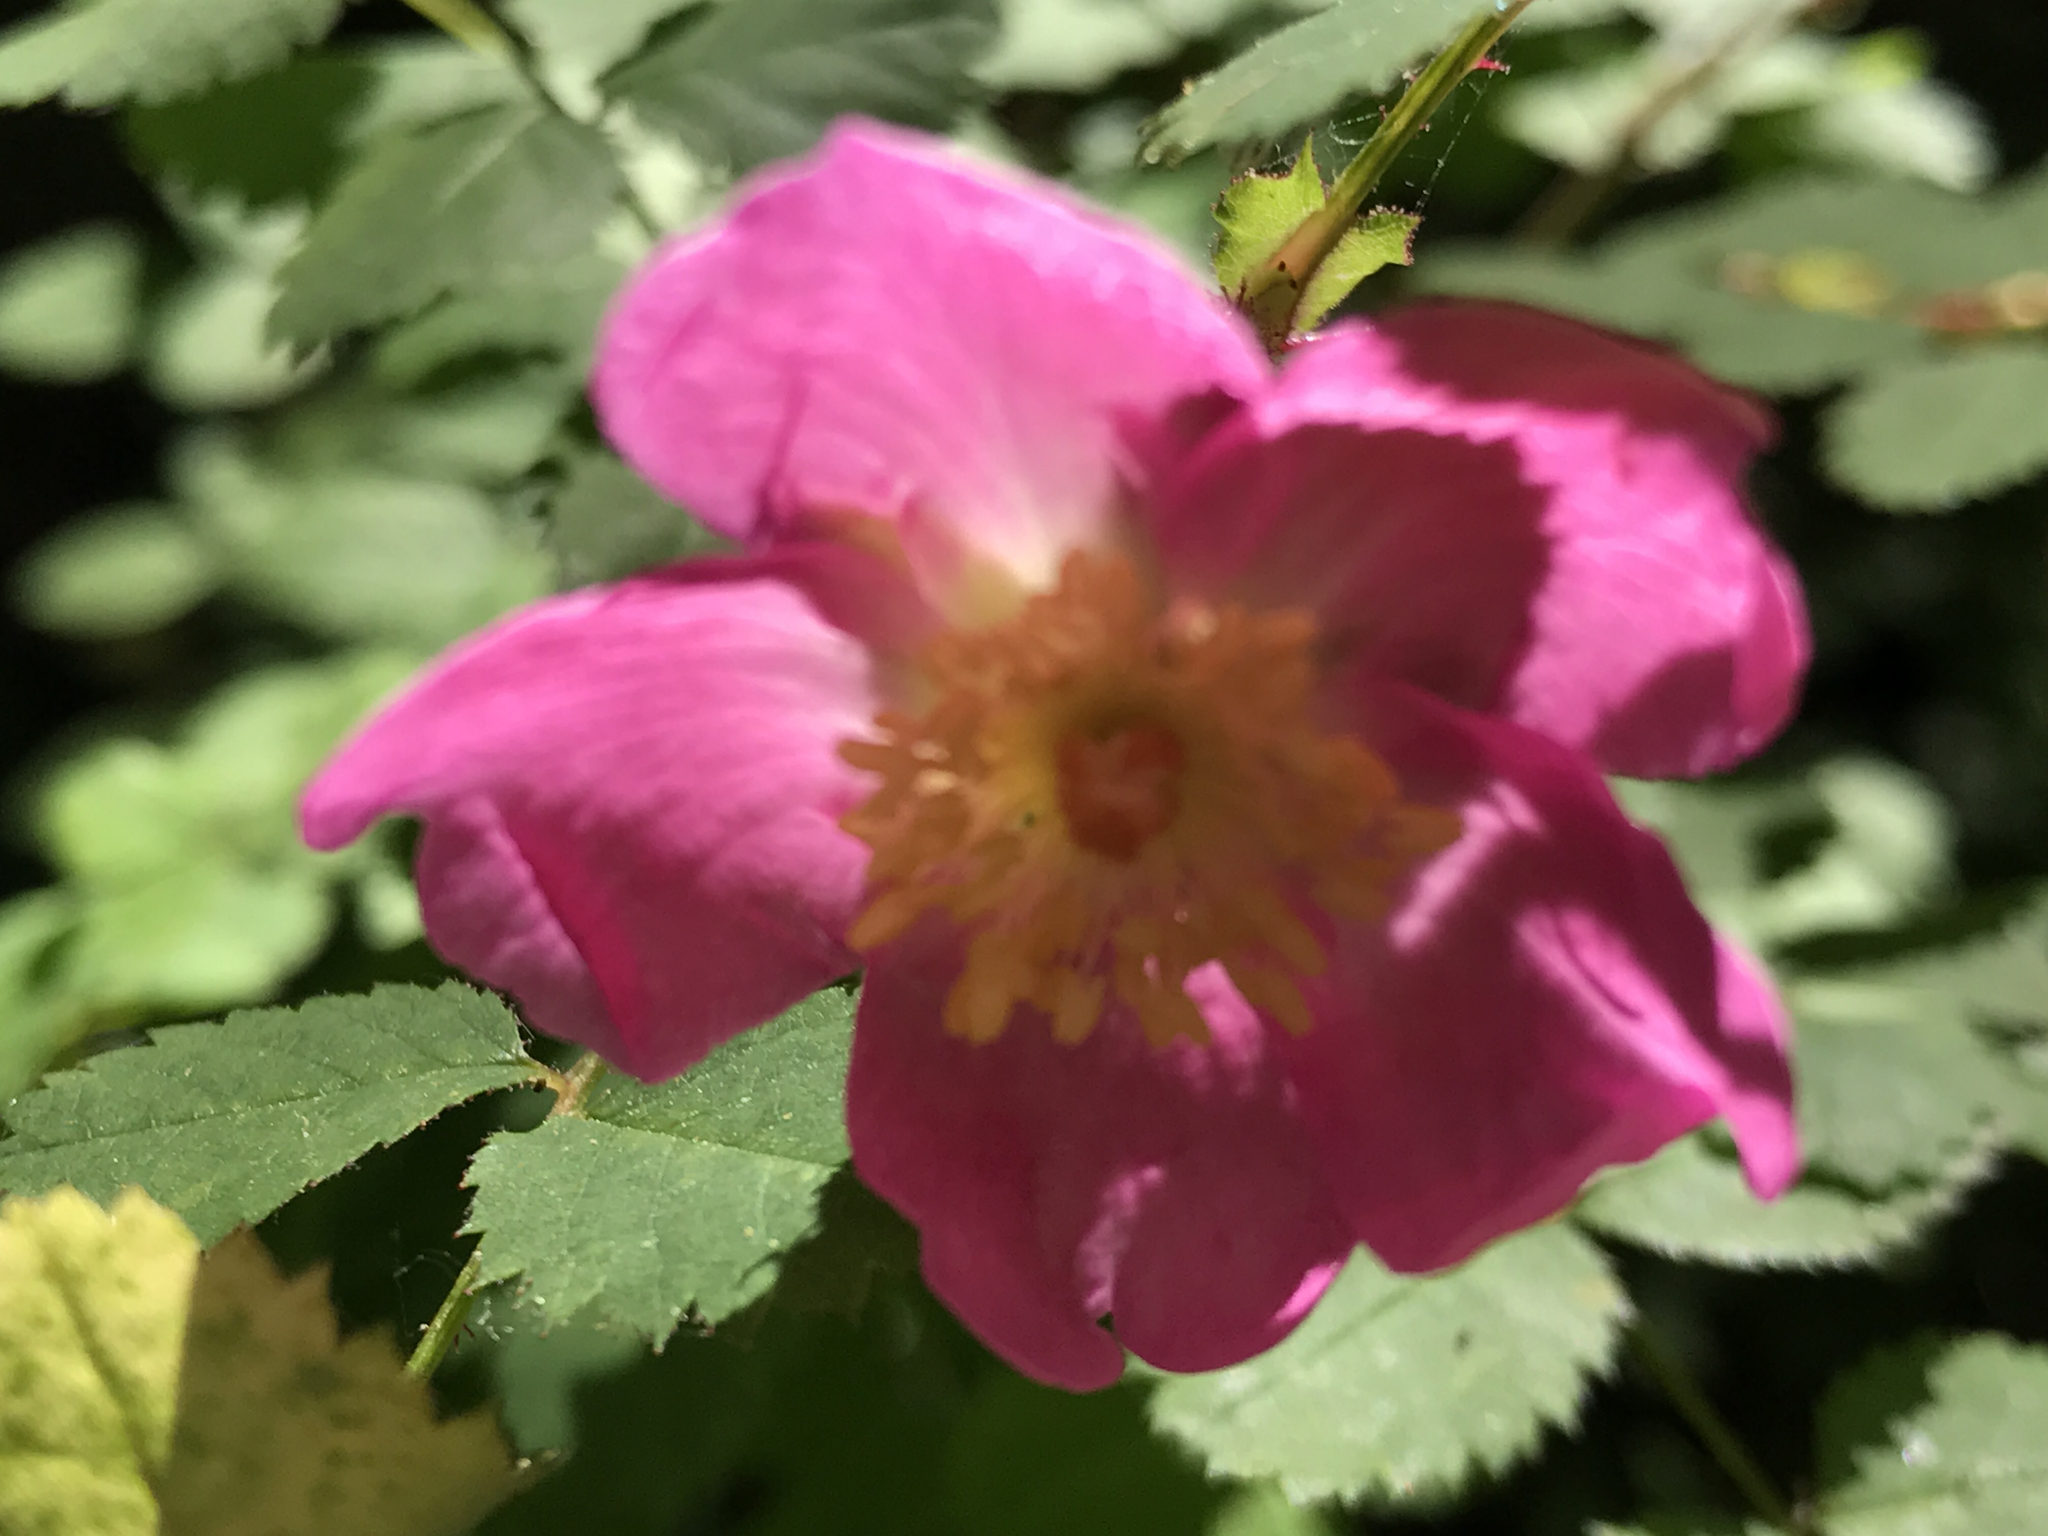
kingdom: Plantae
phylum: Tracheophyta
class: Magnoliopsida
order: Rosales
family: Rosaceae
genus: Rosa
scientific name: Rosa gymnocarpa
